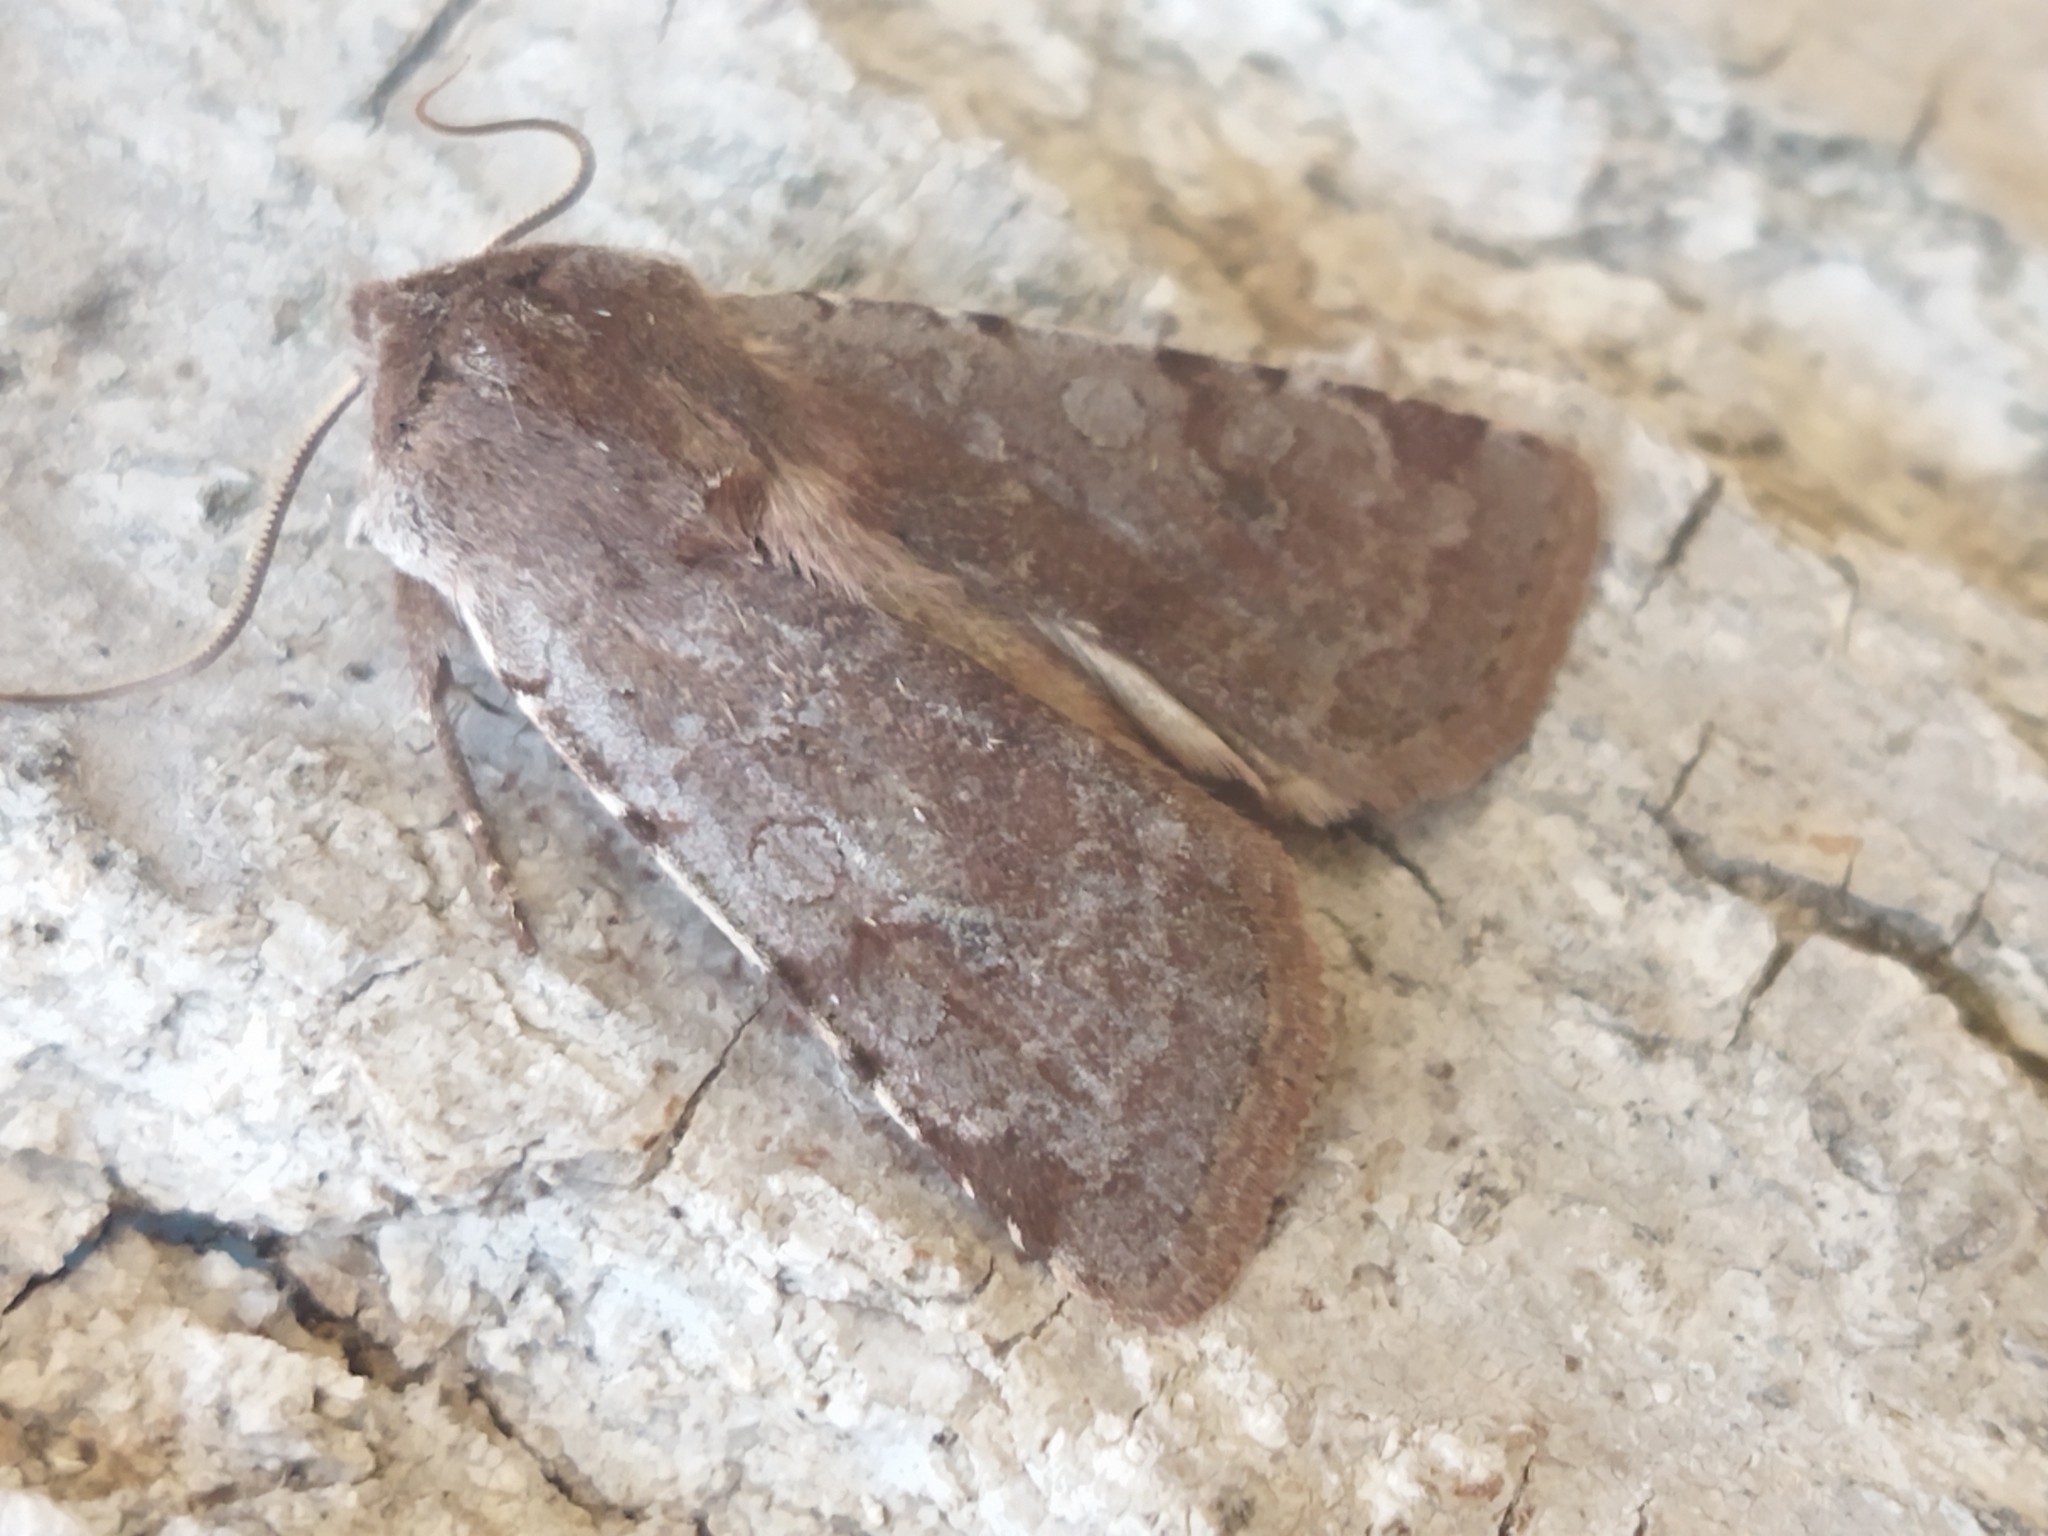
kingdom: Animalia
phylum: Arthropoda
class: Insecta
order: Lepidoptera
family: Noctuidae
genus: Cerastis
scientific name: Cerastis rubricosa
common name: Red chestnut
